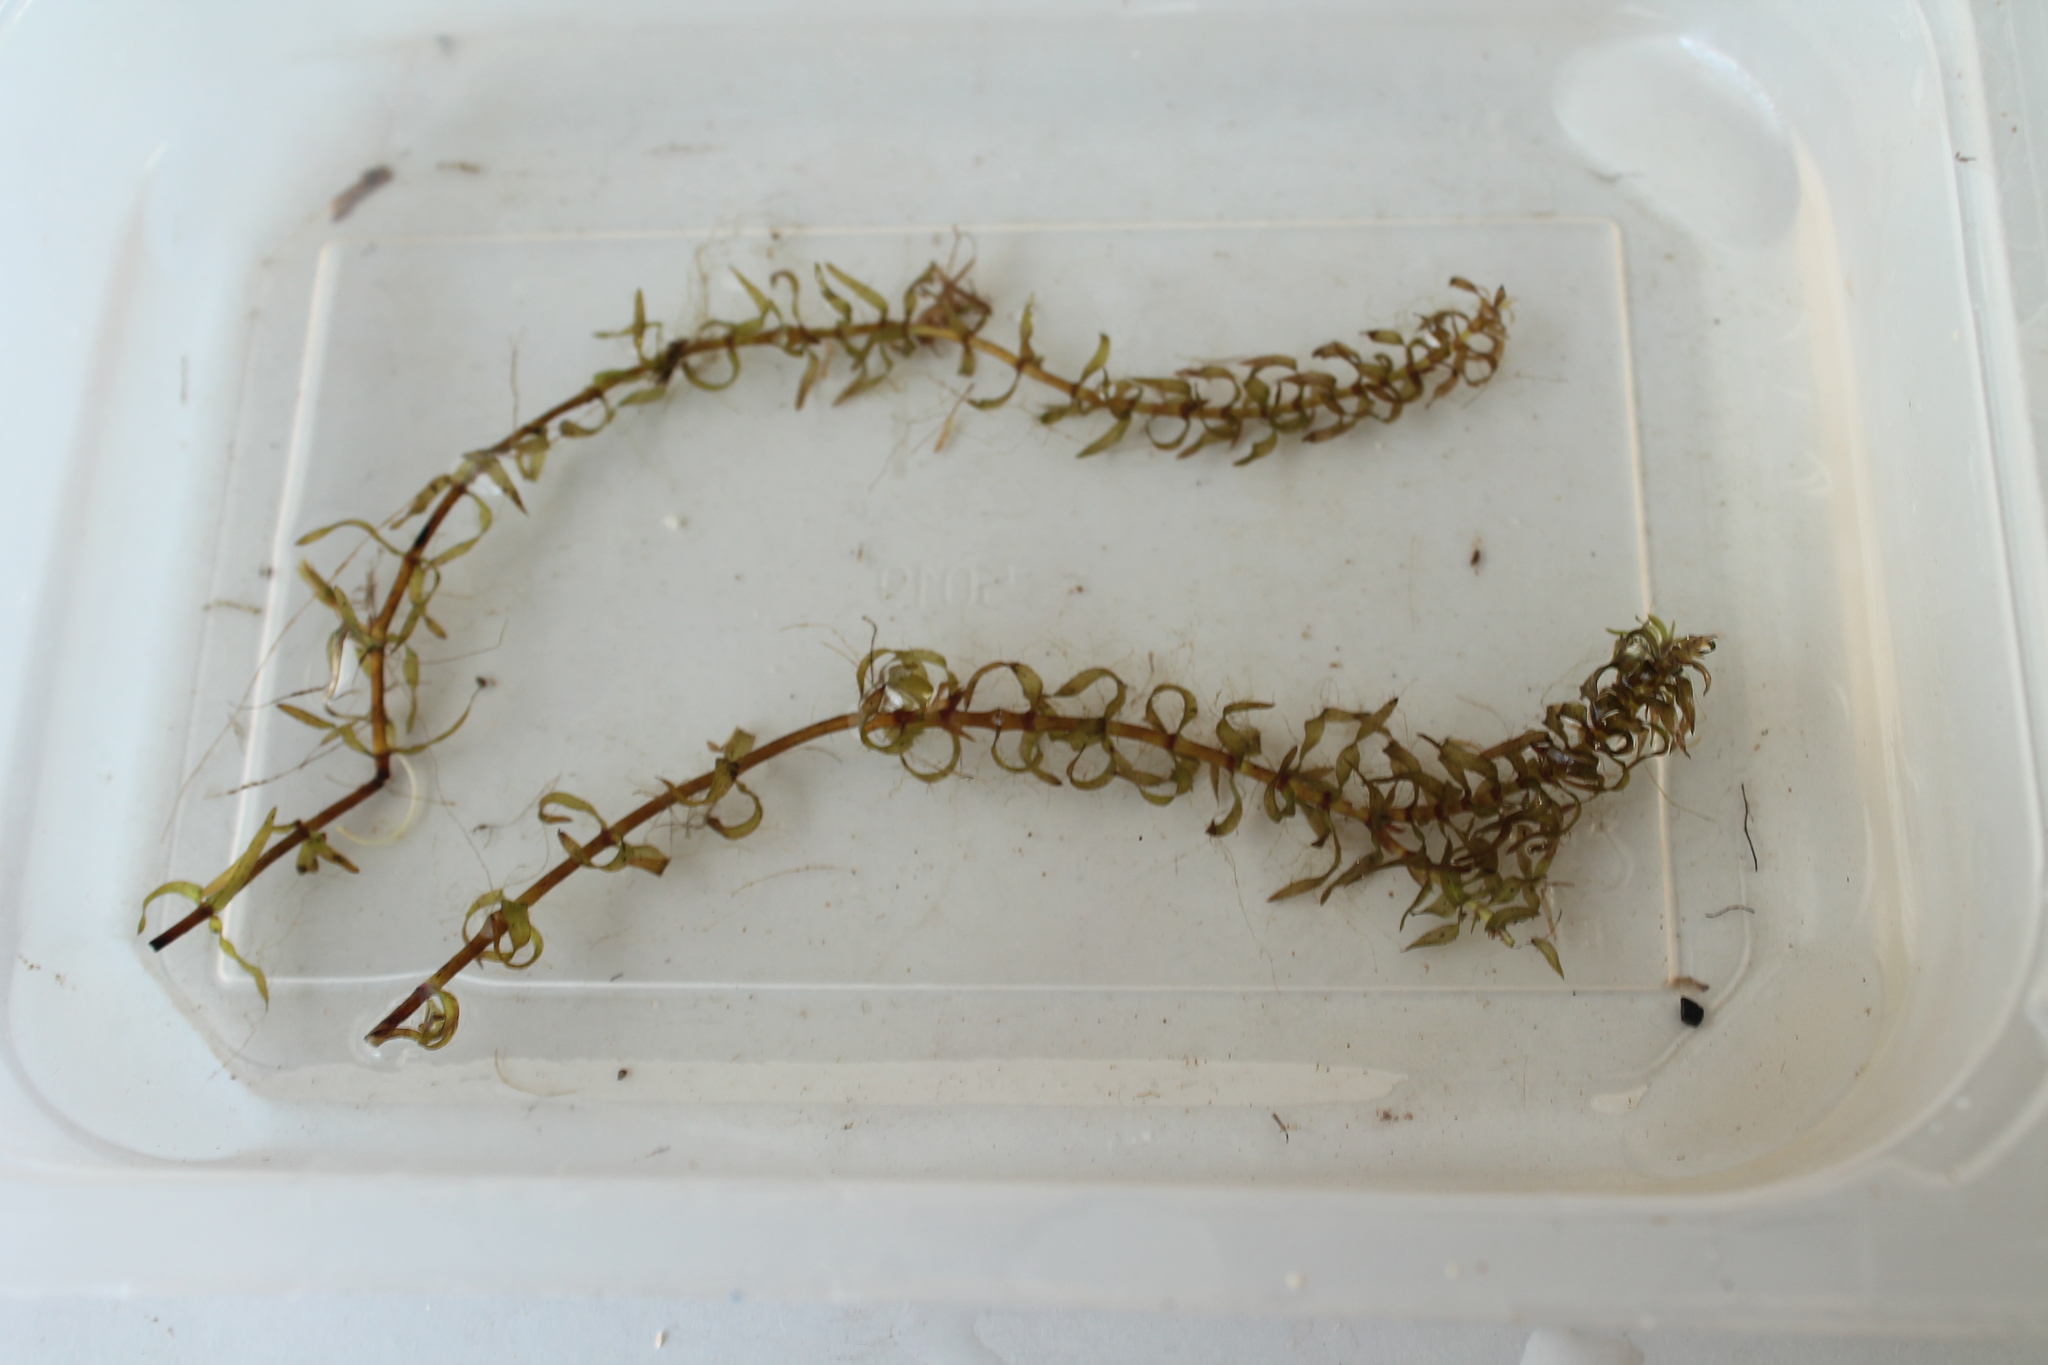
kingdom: Plantae
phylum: Tracheophyta
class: Liliopsida
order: Alismatales
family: Hydrocharitaceae
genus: Elodea
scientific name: Elodea nuttallii
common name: Nuttall's waterweed
